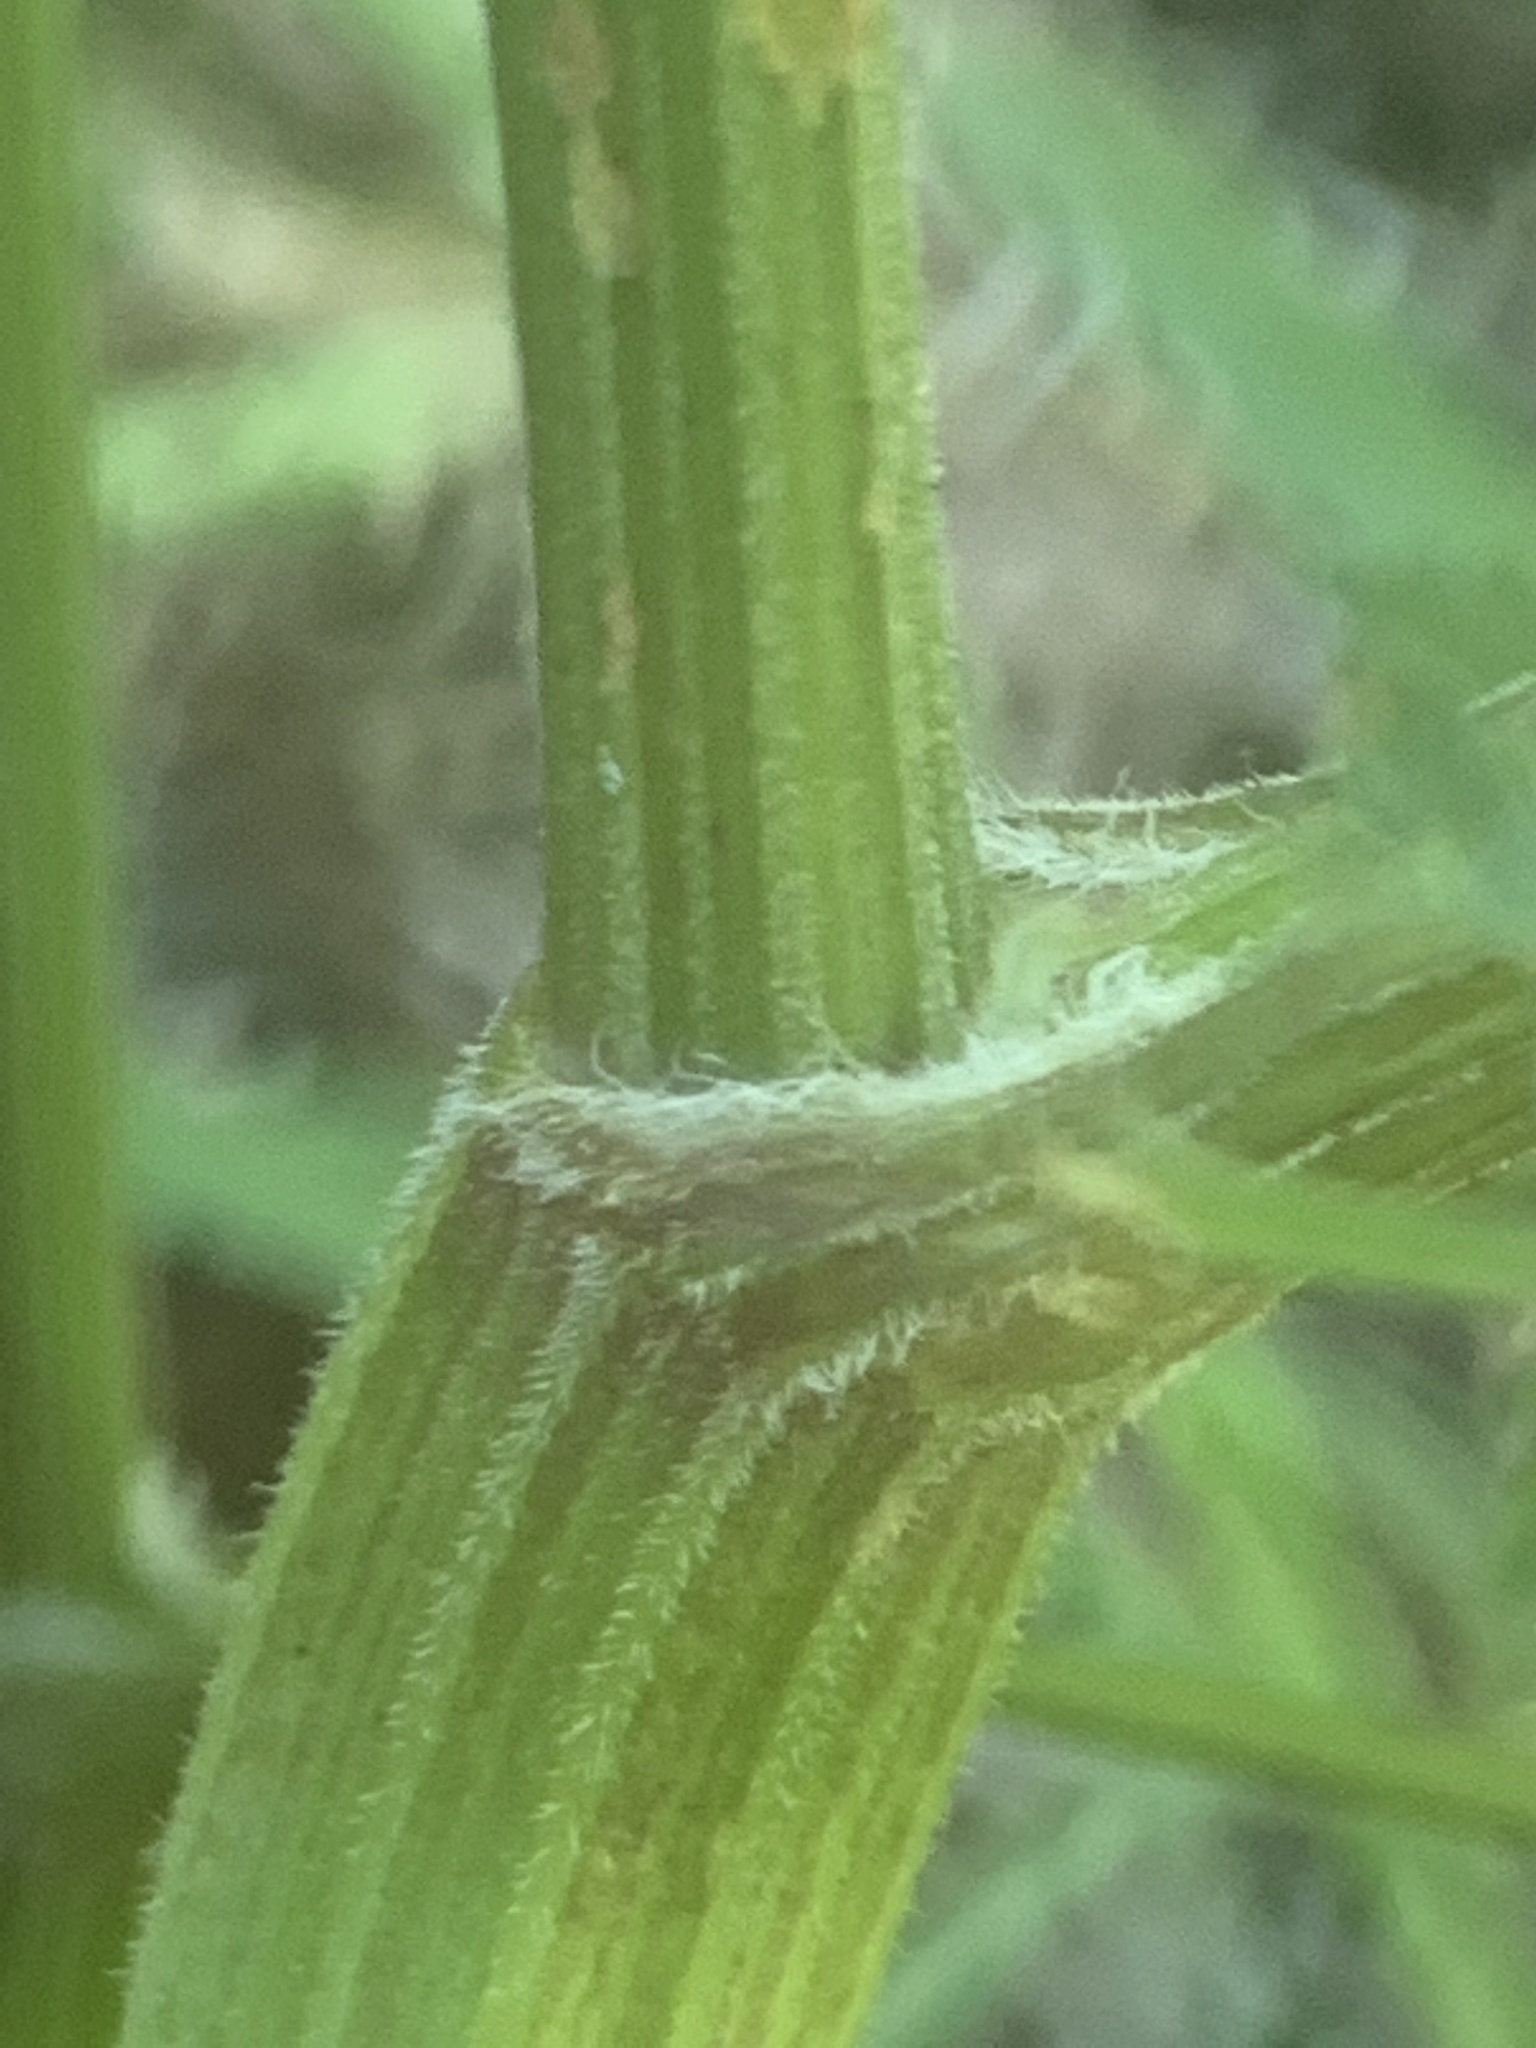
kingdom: Plantae
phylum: Tracheophyta
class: Magnoliopsida
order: Apiales
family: Apiaceae
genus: Anthriscus
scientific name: Anthriscus sylvestris
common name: Cow parsley
